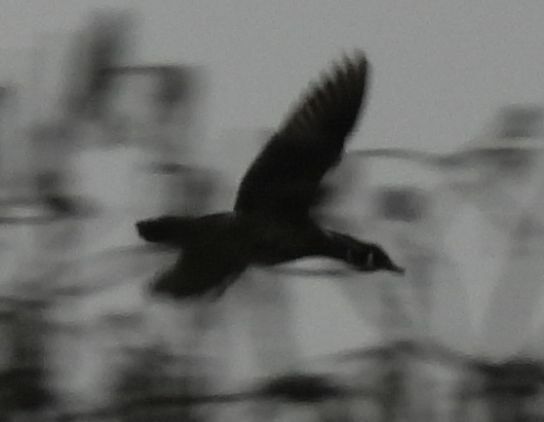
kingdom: Animalia
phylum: Chordata
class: Aves
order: Anseriformes
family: Anatidae
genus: Aix
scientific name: Aix sponsa
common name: Wood duck
